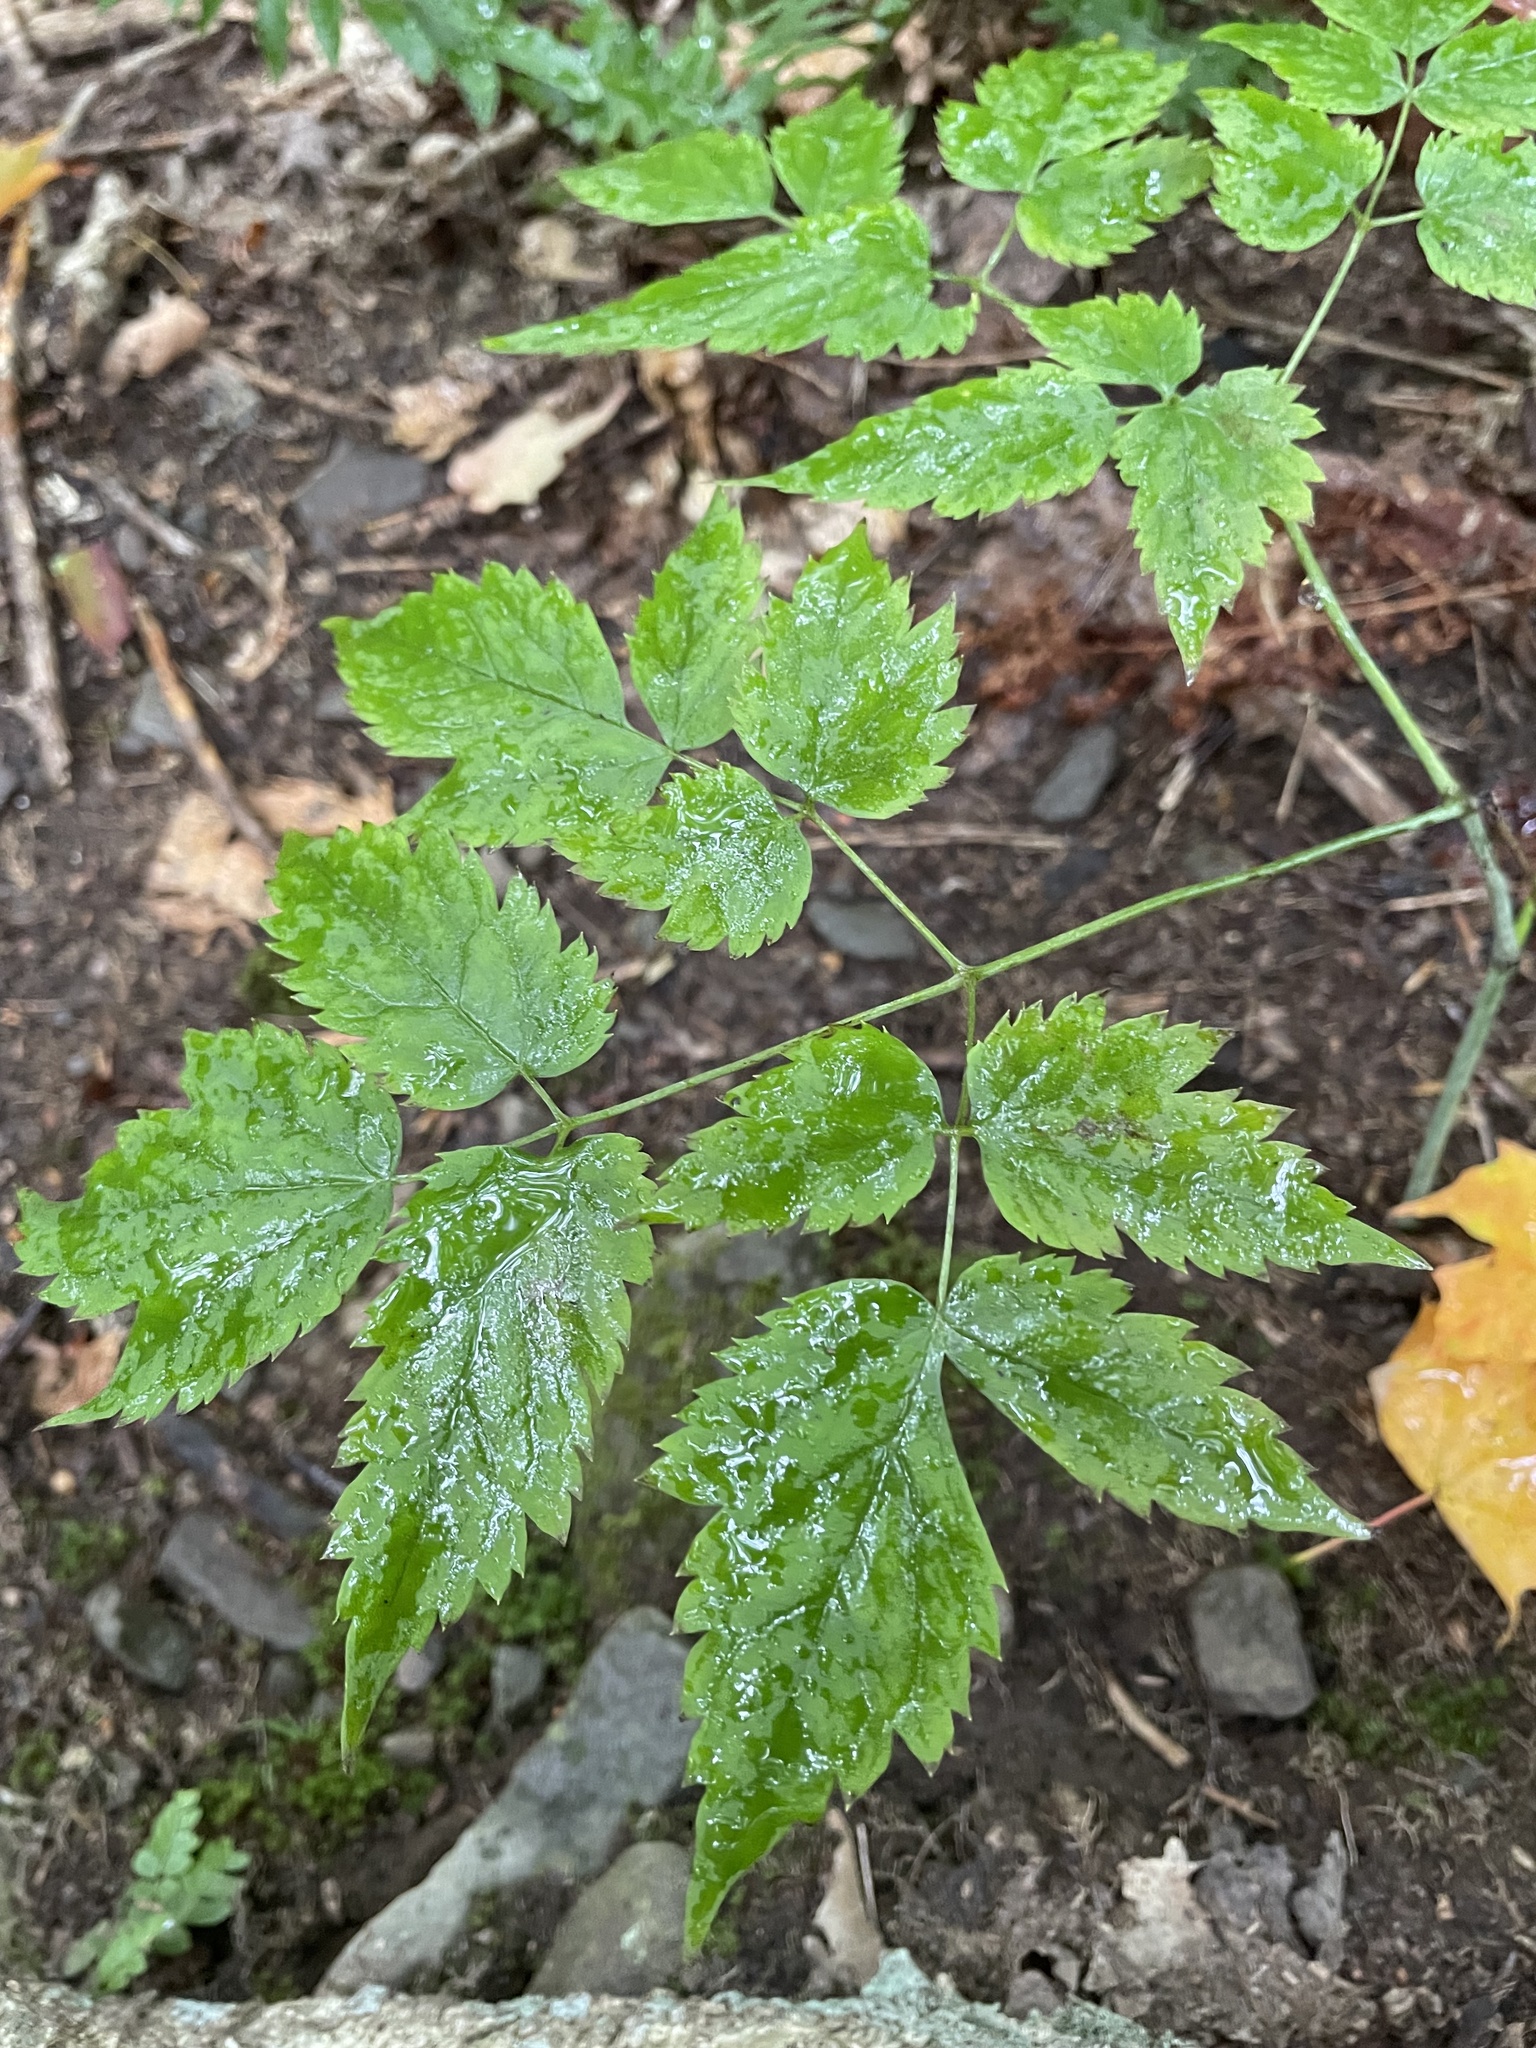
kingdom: Plantae
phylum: Tracheophyta
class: Magnoliopsida
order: Ranunculales
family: Ranunculaceae
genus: Actaea
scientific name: Actaea pachypoda
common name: Doll's-eyes
